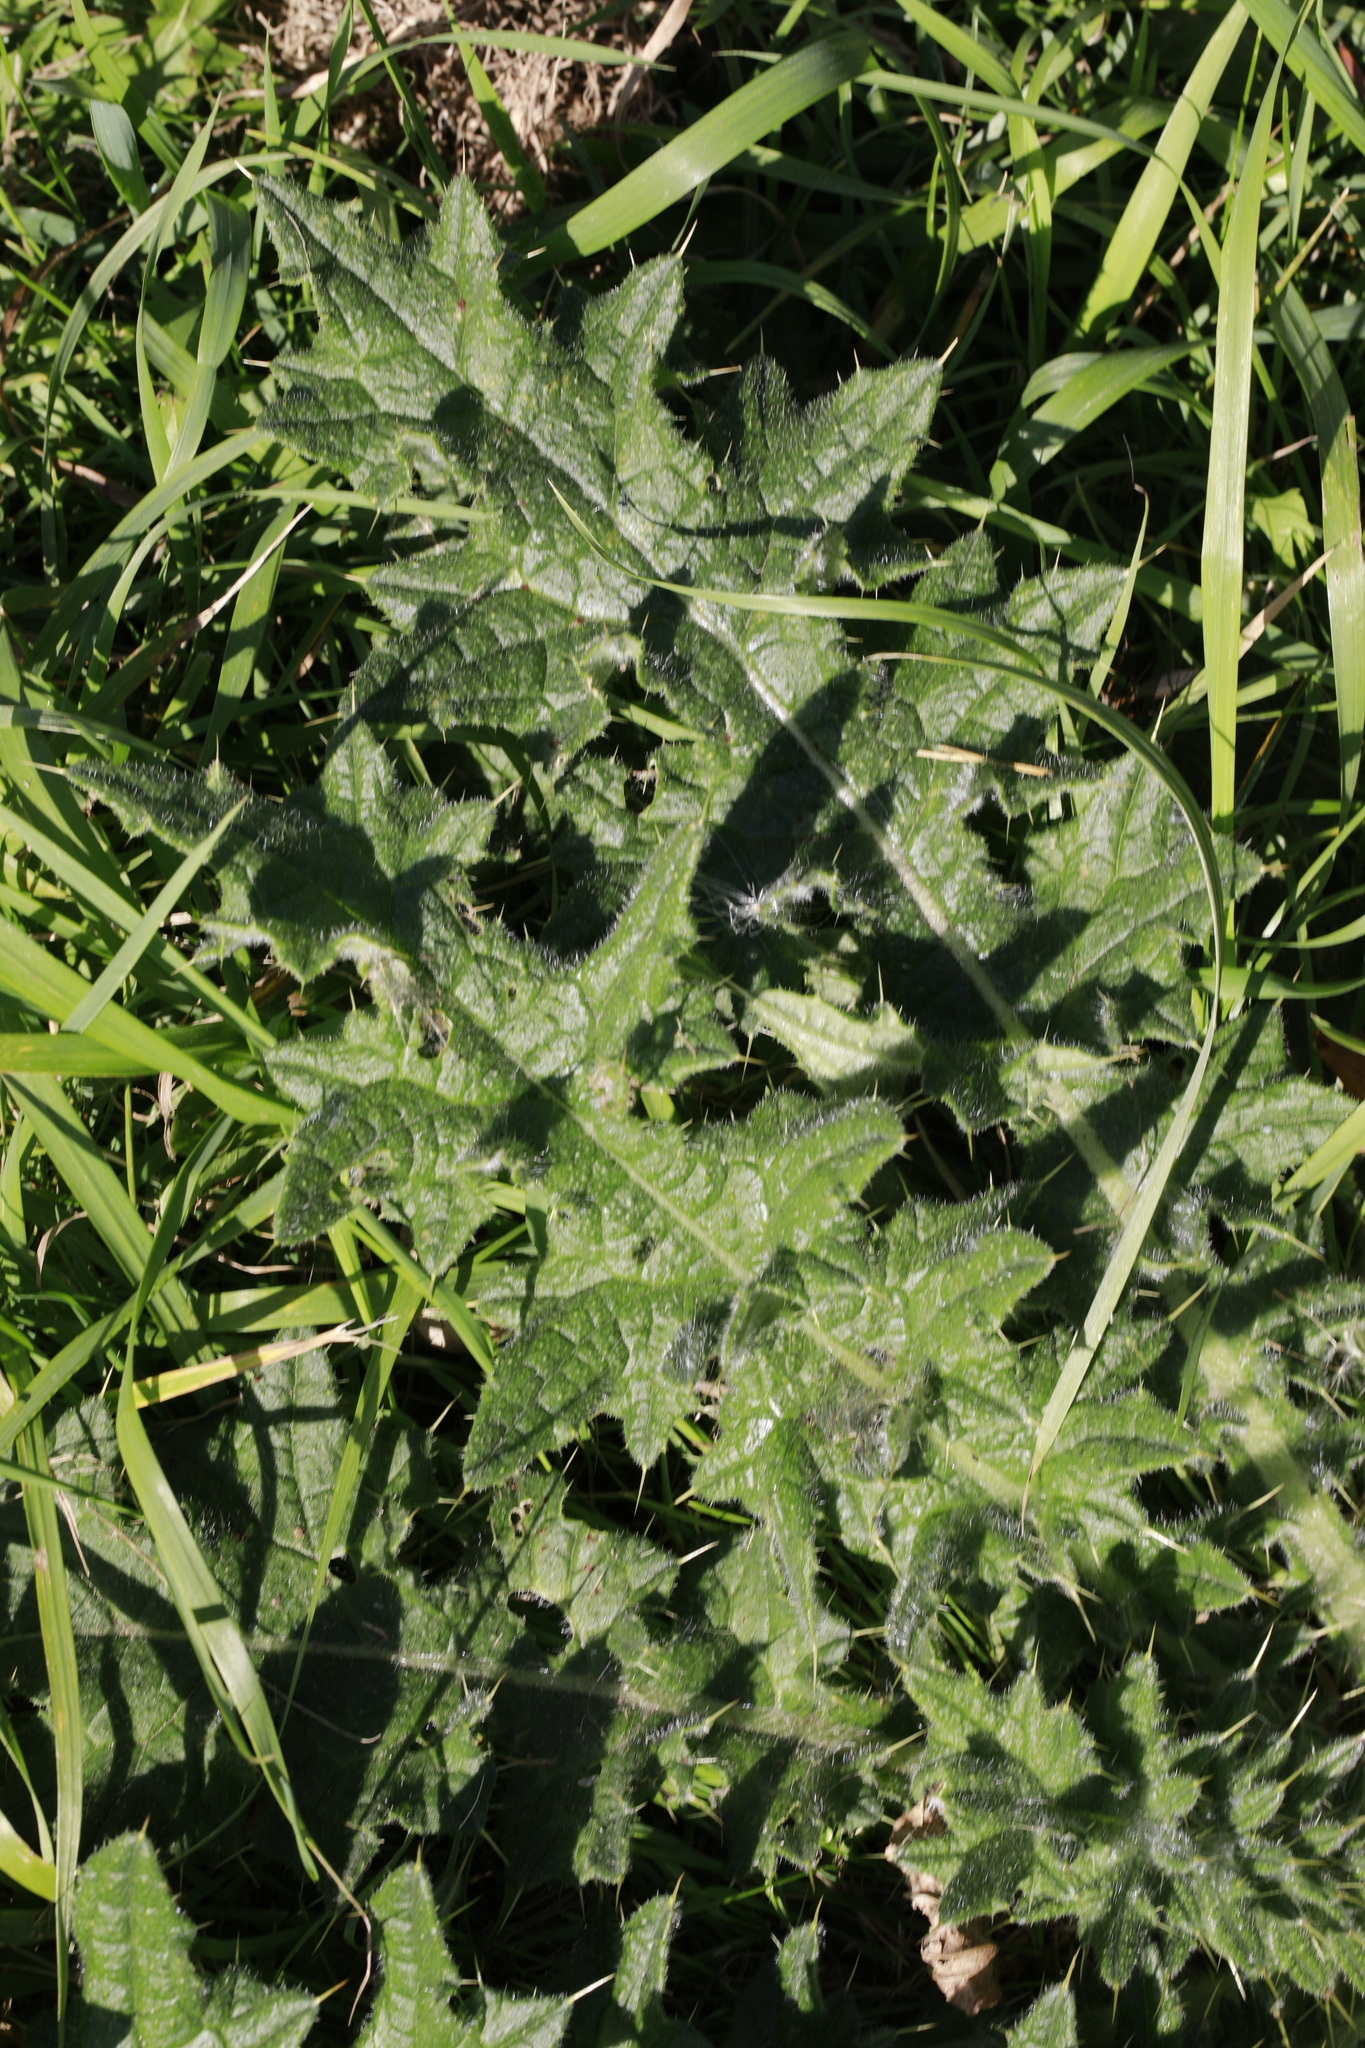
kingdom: Plantae
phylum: Tracheophyta
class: Magnoliopsida
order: Asterales
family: Asteraceae
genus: Cirsium
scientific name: Cirsium vulgare
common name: Bull thistle
